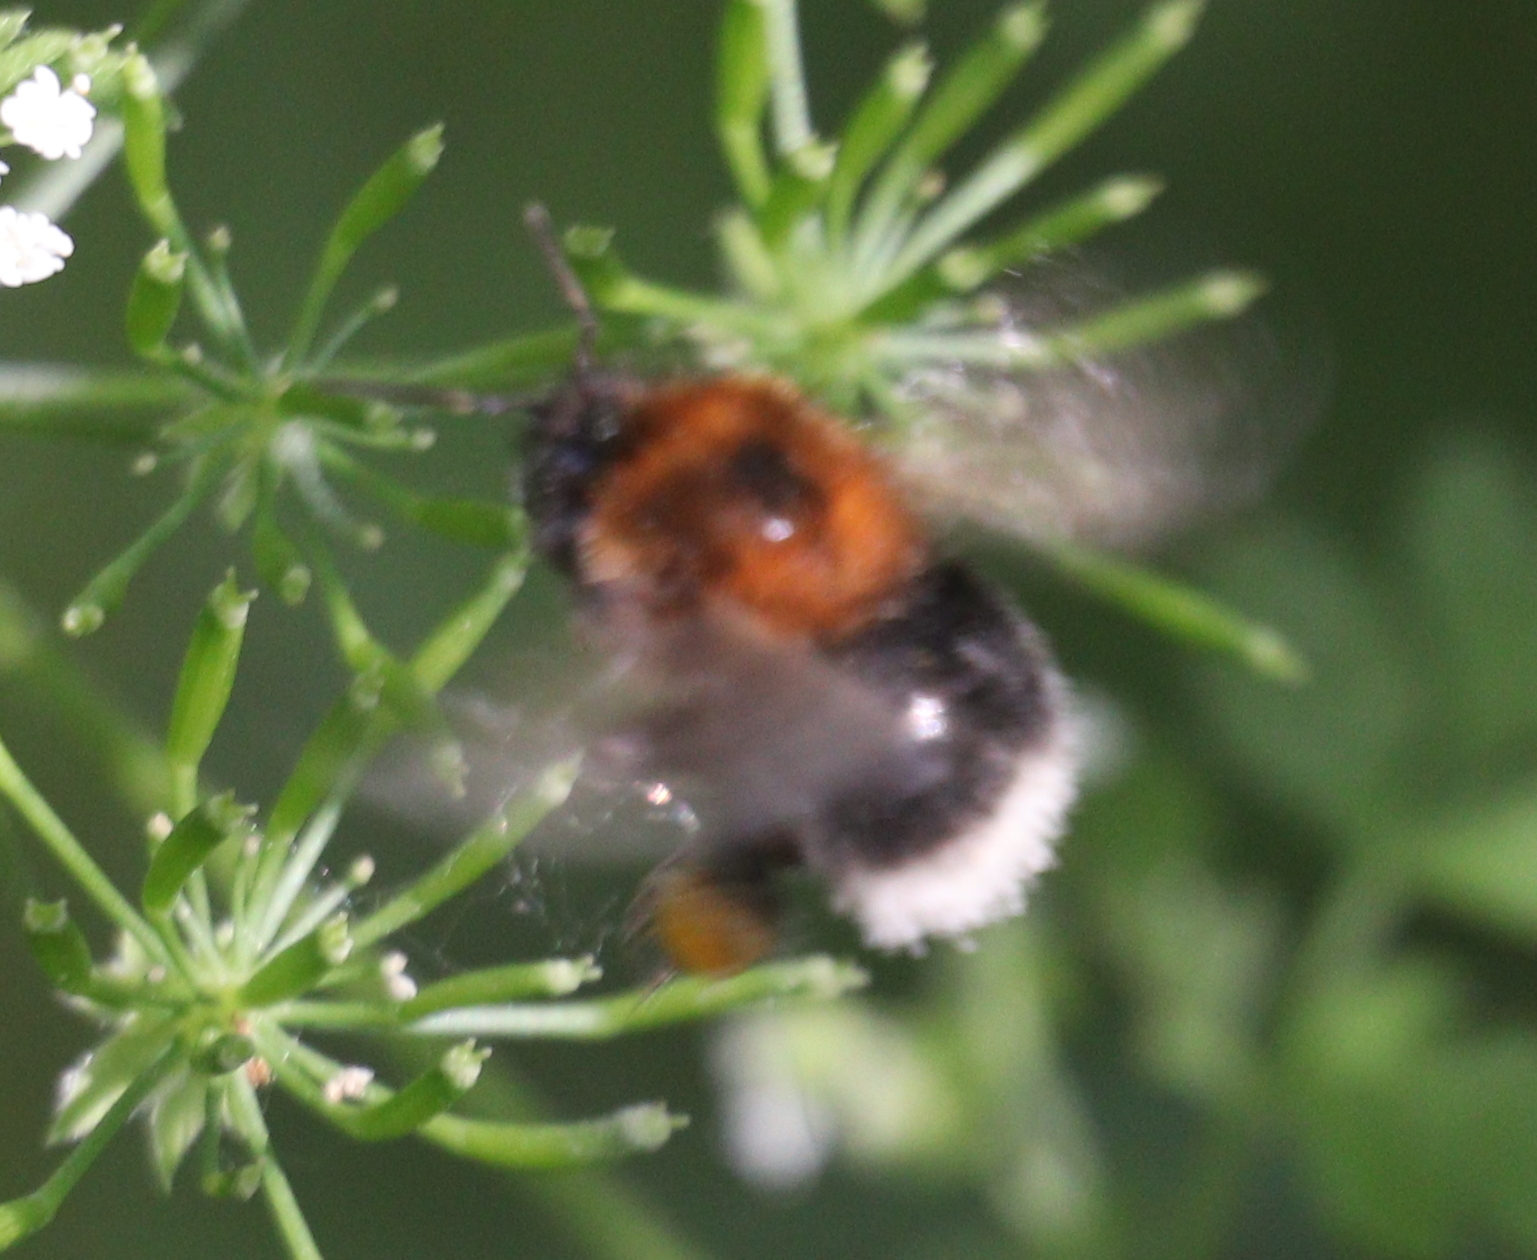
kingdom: Animalia
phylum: Arthropoda
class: Insecta
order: Hymenoptera
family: Apidae
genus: Bombus
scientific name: Bombus hypnorum
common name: New garden bumblebee
